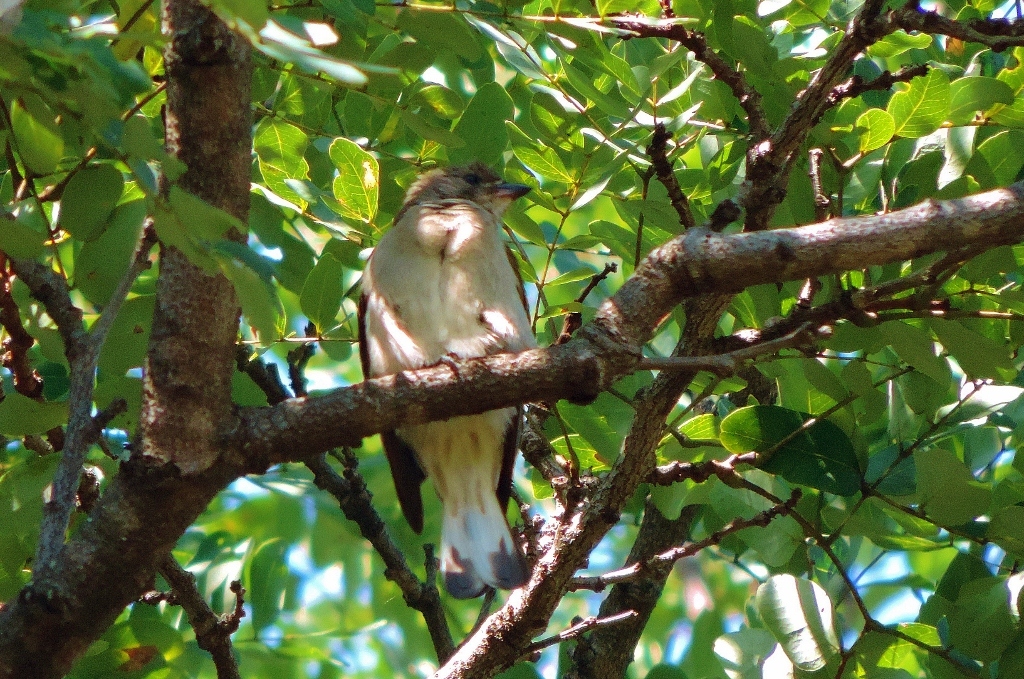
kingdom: Animalia
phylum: Chordata
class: Aves
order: Piciformes
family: Indicatoridae
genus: Indicator
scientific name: Indicator minor
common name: Lesser honeyguide
